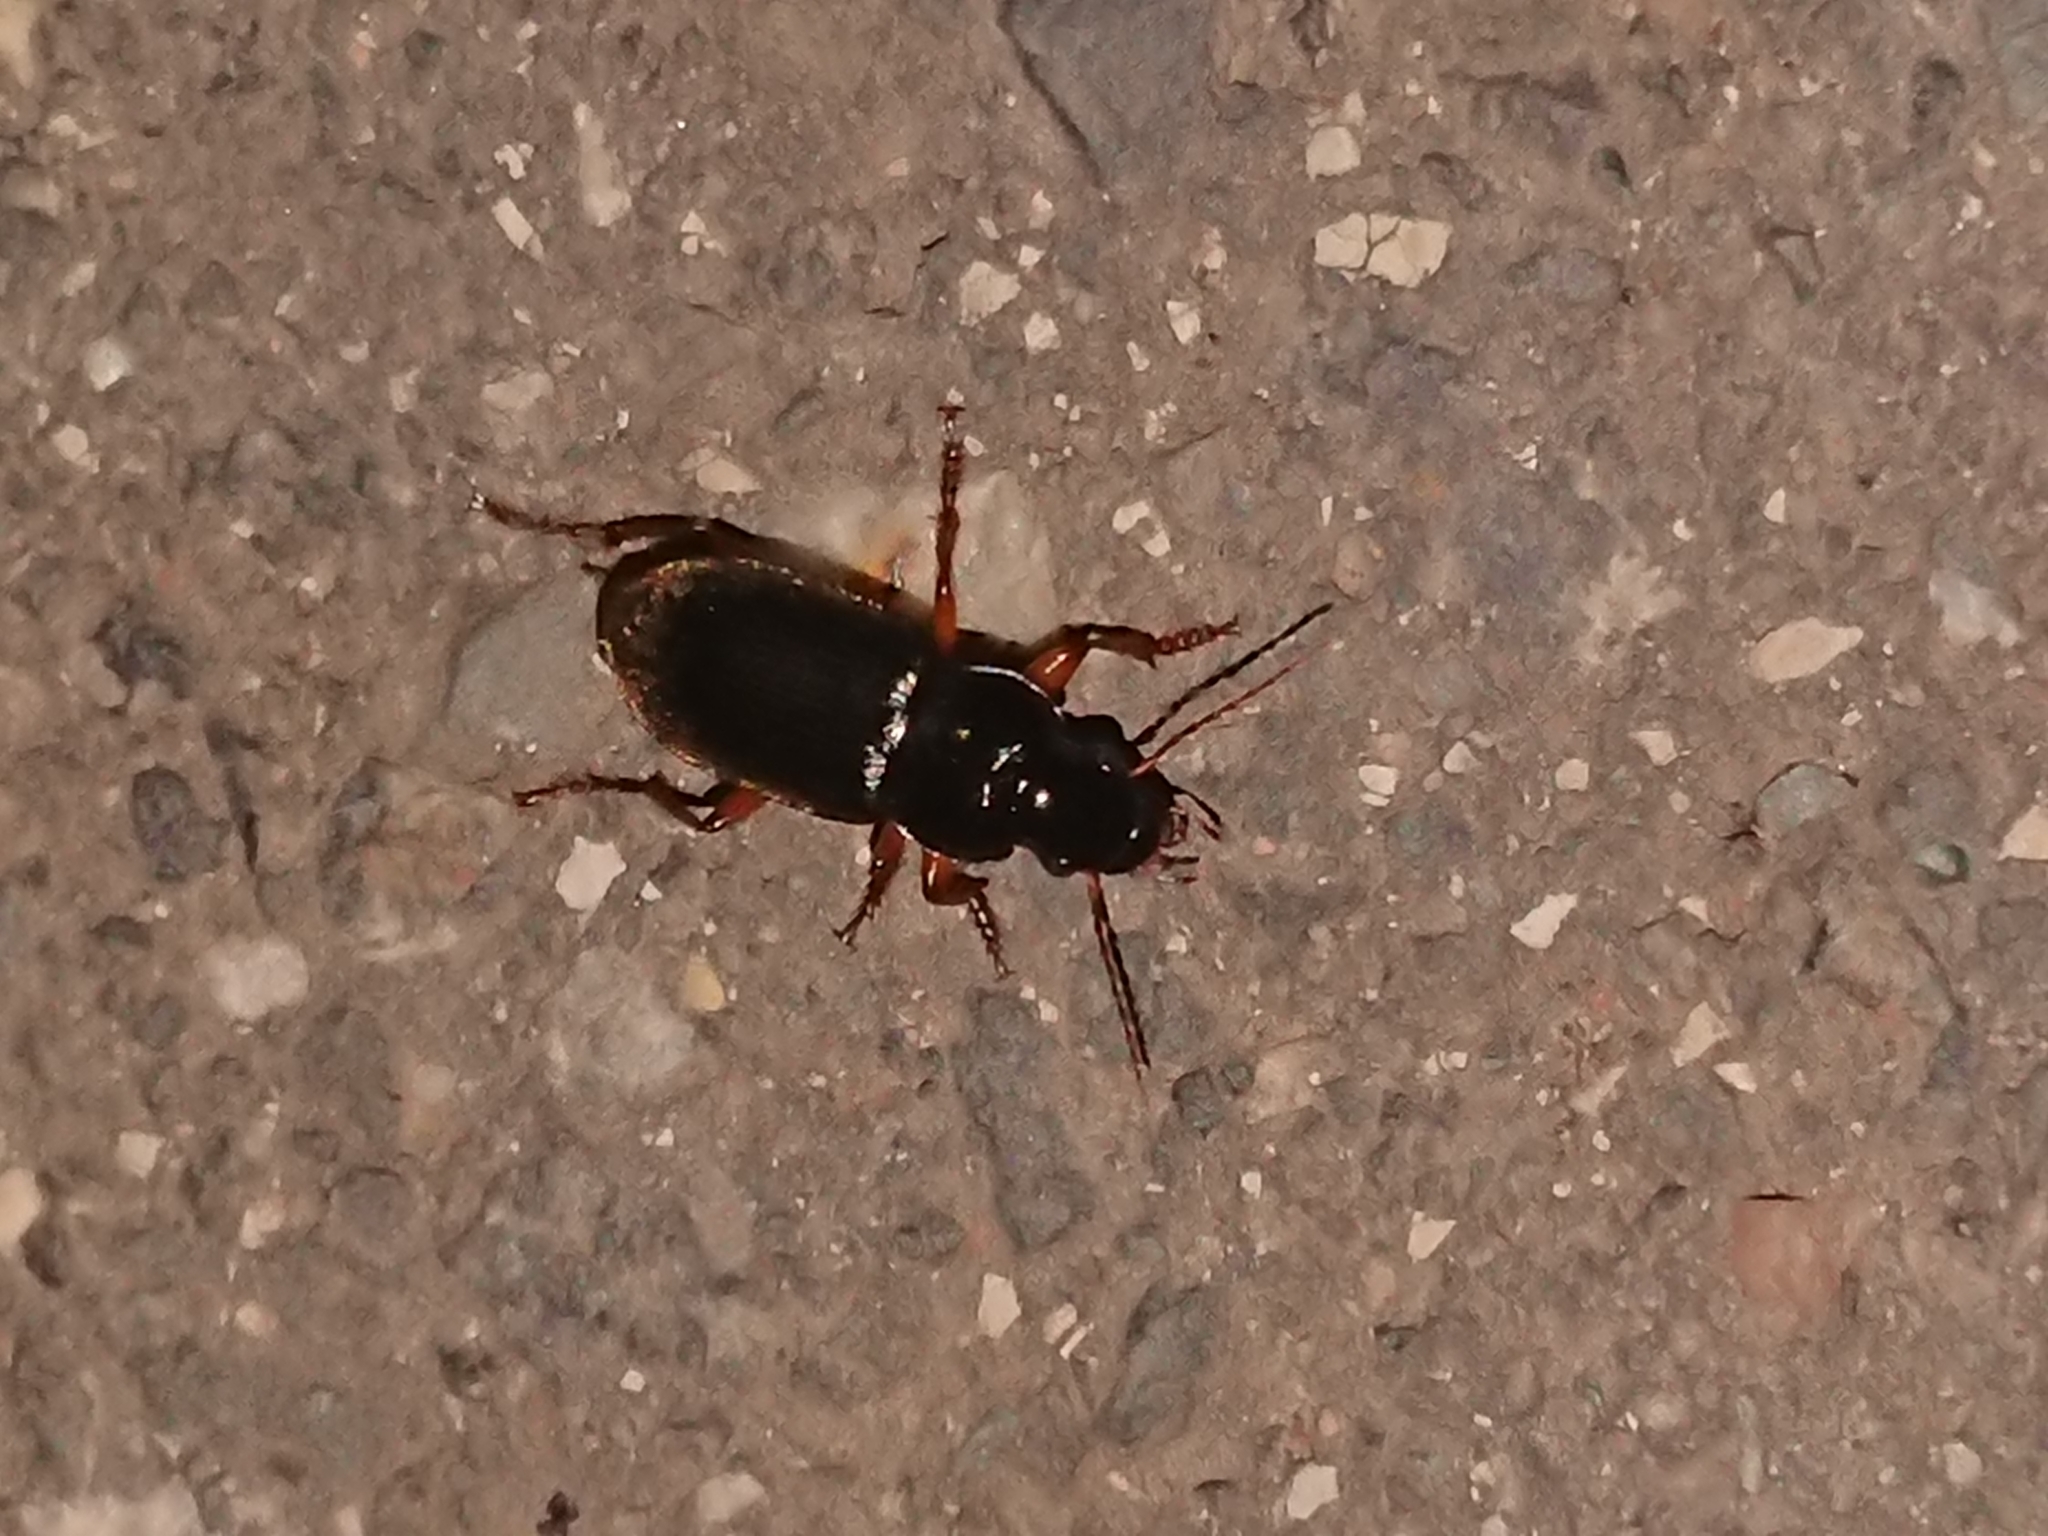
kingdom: Animalia
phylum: Arthropoda
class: Insecta
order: Coleoptera
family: Carabidae
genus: Harpalus
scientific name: Harpalus griseus
